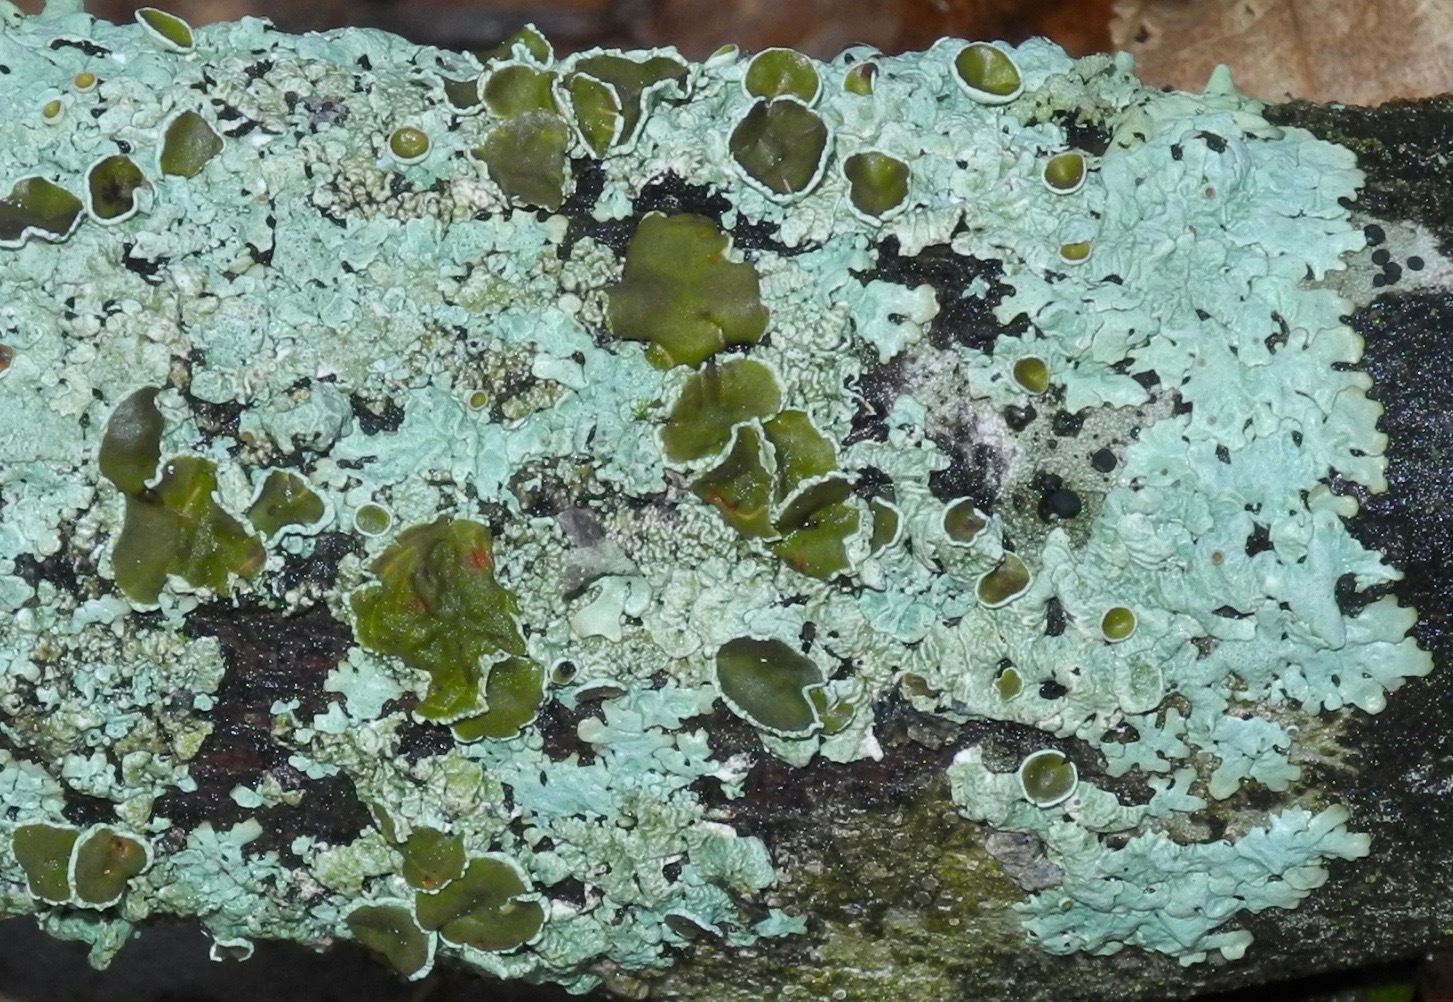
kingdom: Fungi
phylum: Ascomycota
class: Lecanoromycetes
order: Lecanorales
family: Parmeliaceae
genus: Myelochroa
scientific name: Myelochroa galbina
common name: Smooth axil-bristle lichen
